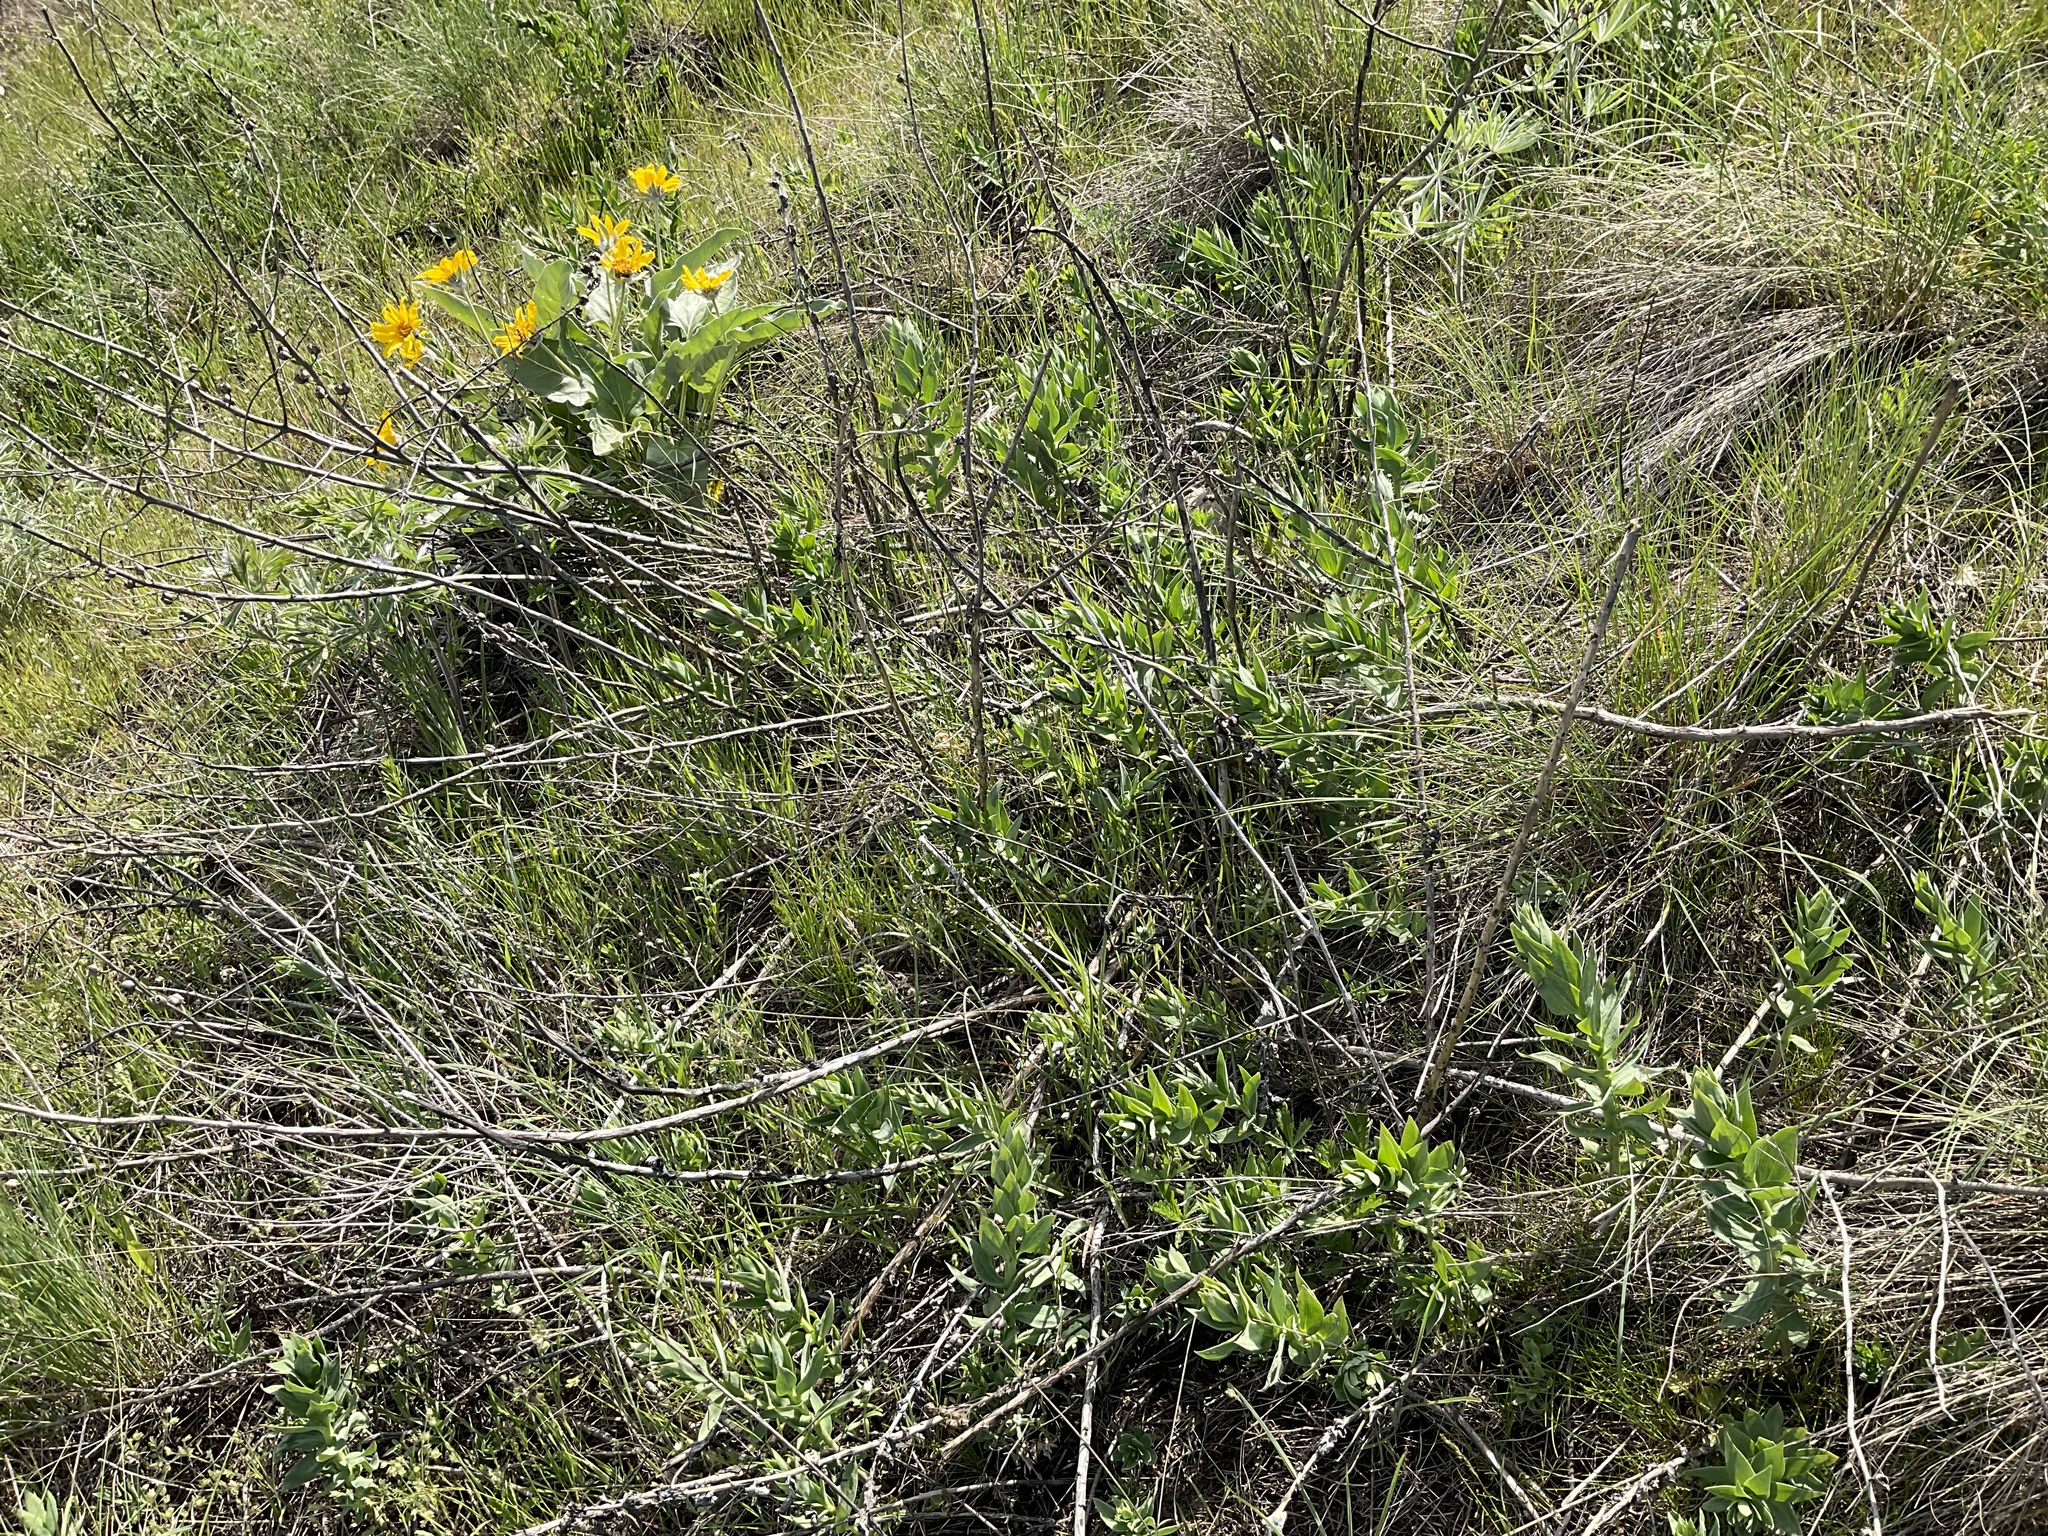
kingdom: Plantae
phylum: Tracheophyta
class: Magnoliopsida
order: Lamiales
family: Plantaginaceae
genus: Linaria
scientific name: Linaria dalmatica
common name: Dalmatian toadflax
